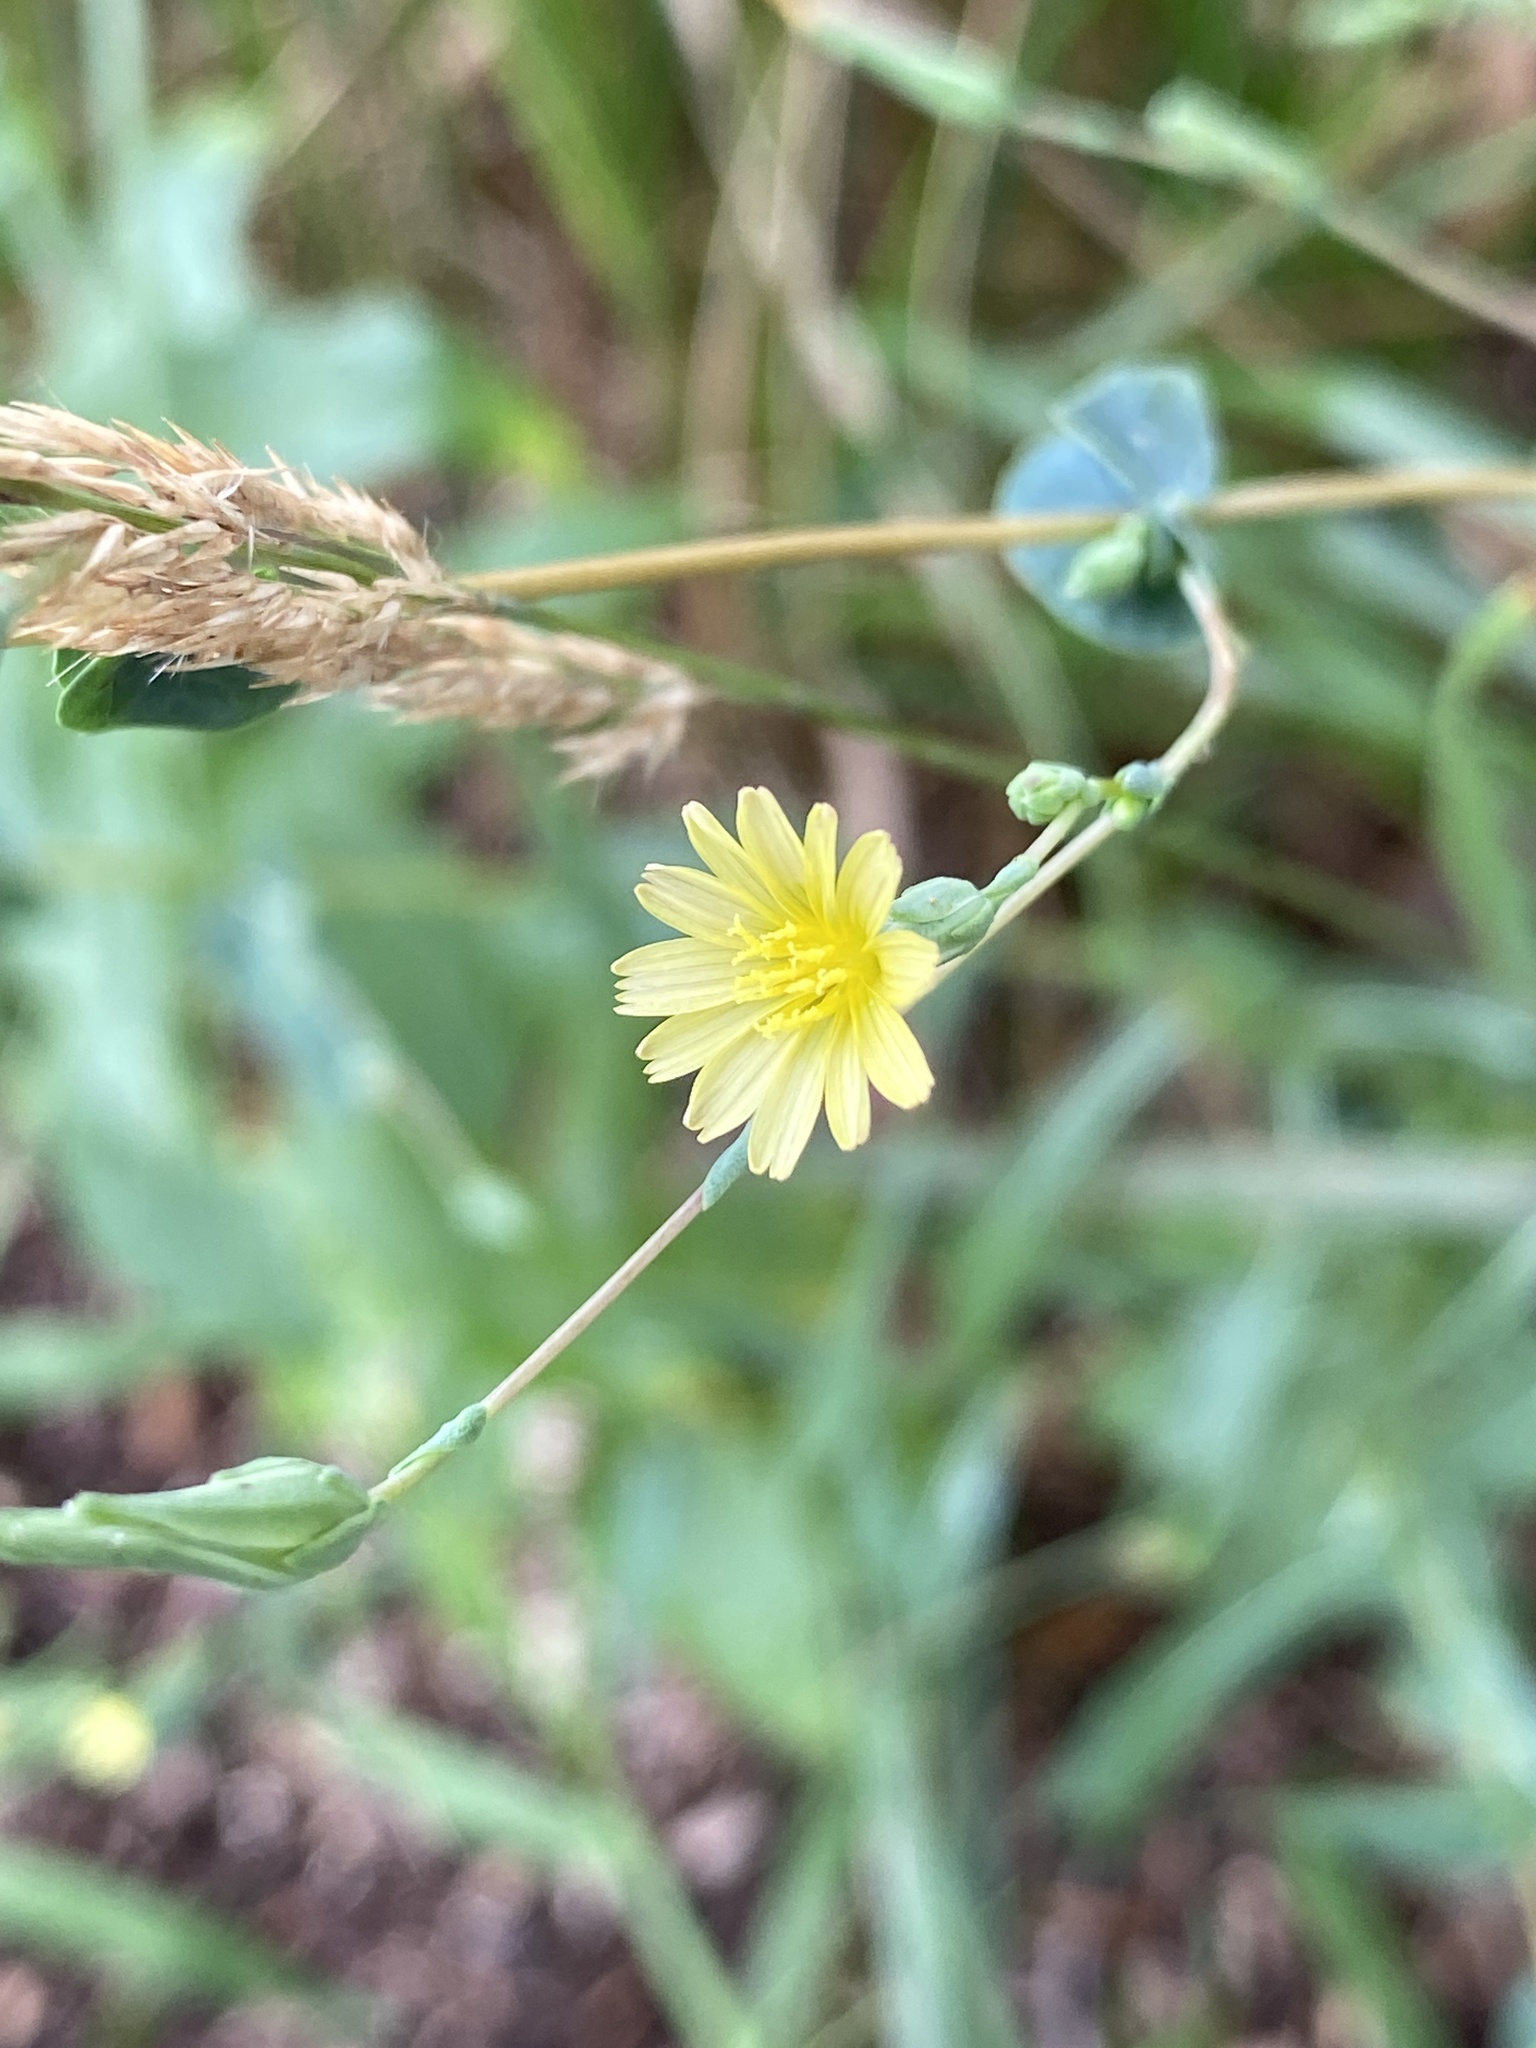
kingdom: Plantae
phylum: Tracheophyta
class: Magnoliopsida
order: Asterales
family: Asteraceae
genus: Lactuca
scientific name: Lactuca serriola
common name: Prickly lettuce
